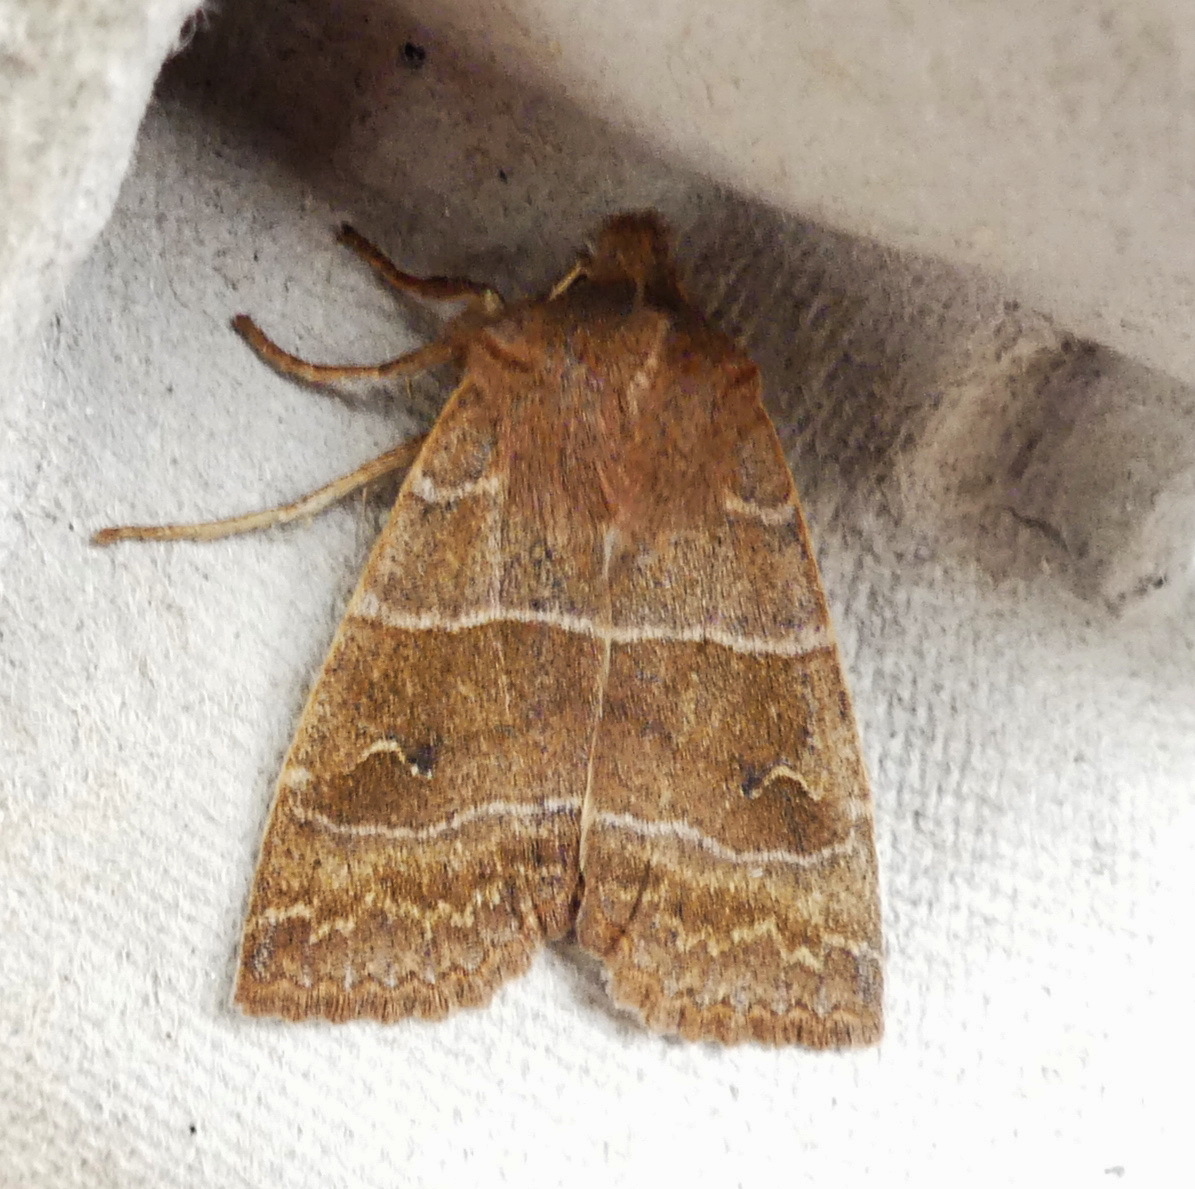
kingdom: Animalia
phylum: Arthropoda
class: Insecta
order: Lepidoptera
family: Noctuidae
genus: Eupsilia
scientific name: Eupsilia morrisoni
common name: Morrison's sallow
